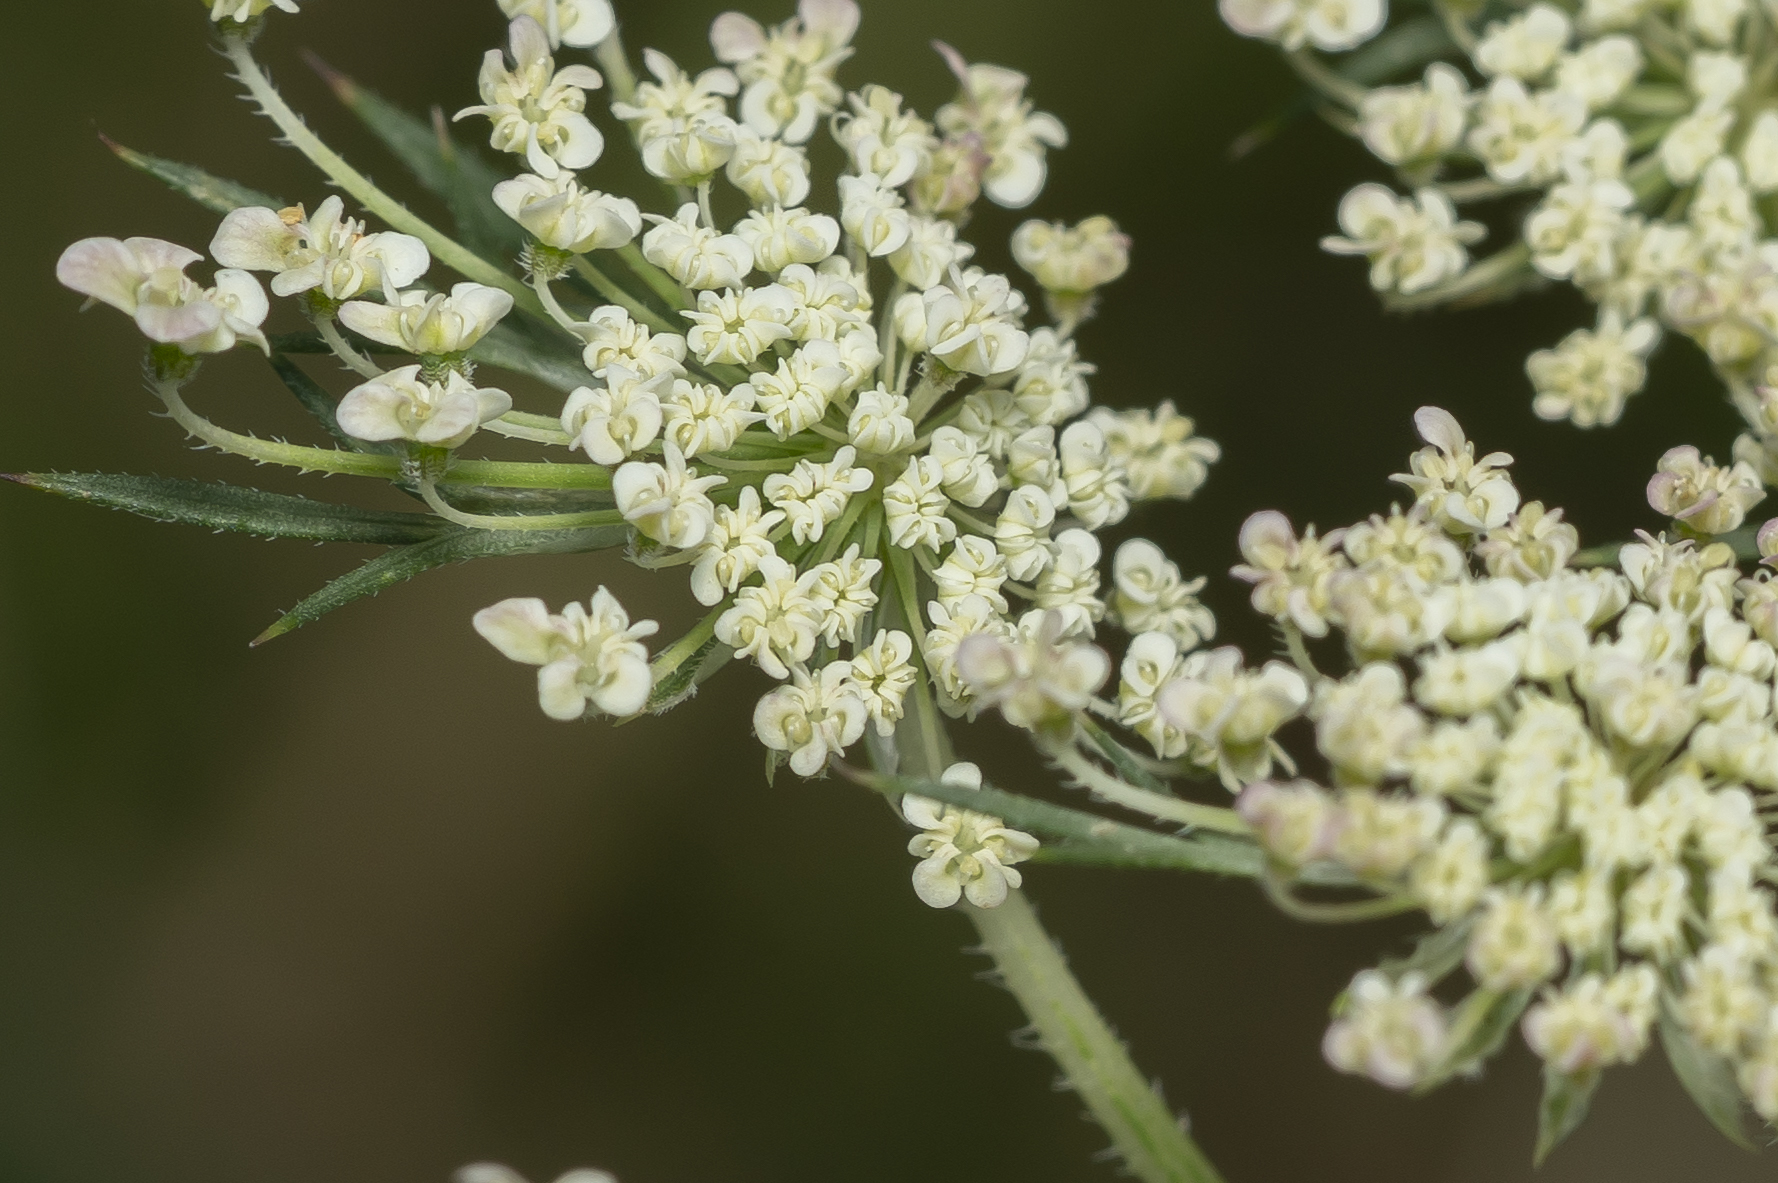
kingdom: Plantae
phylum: Tracheophyta
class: Magnoliopsida
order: Apiales
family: Apiaceae
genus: Daucus
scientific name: Daucus carota
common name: Wild carrot
